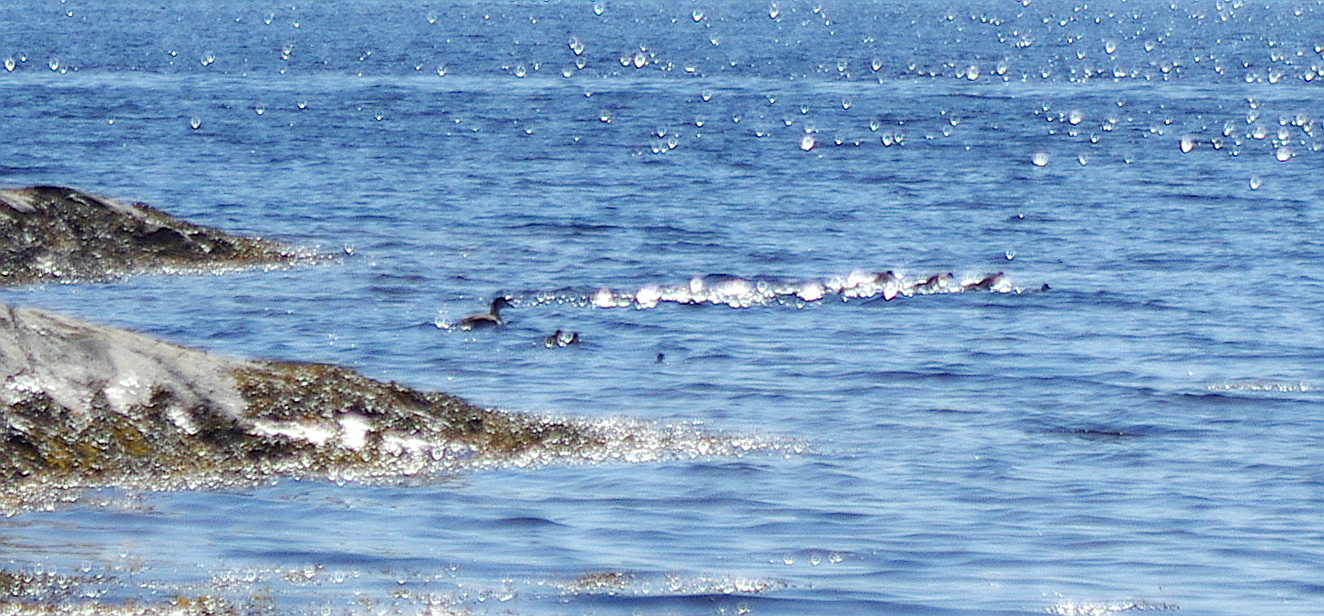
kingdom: Animalia
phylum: Chordata
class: Aves
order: Anseriformes
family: Anatidae
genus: Somateria
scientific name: Somateria mollissima
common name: Common eider
